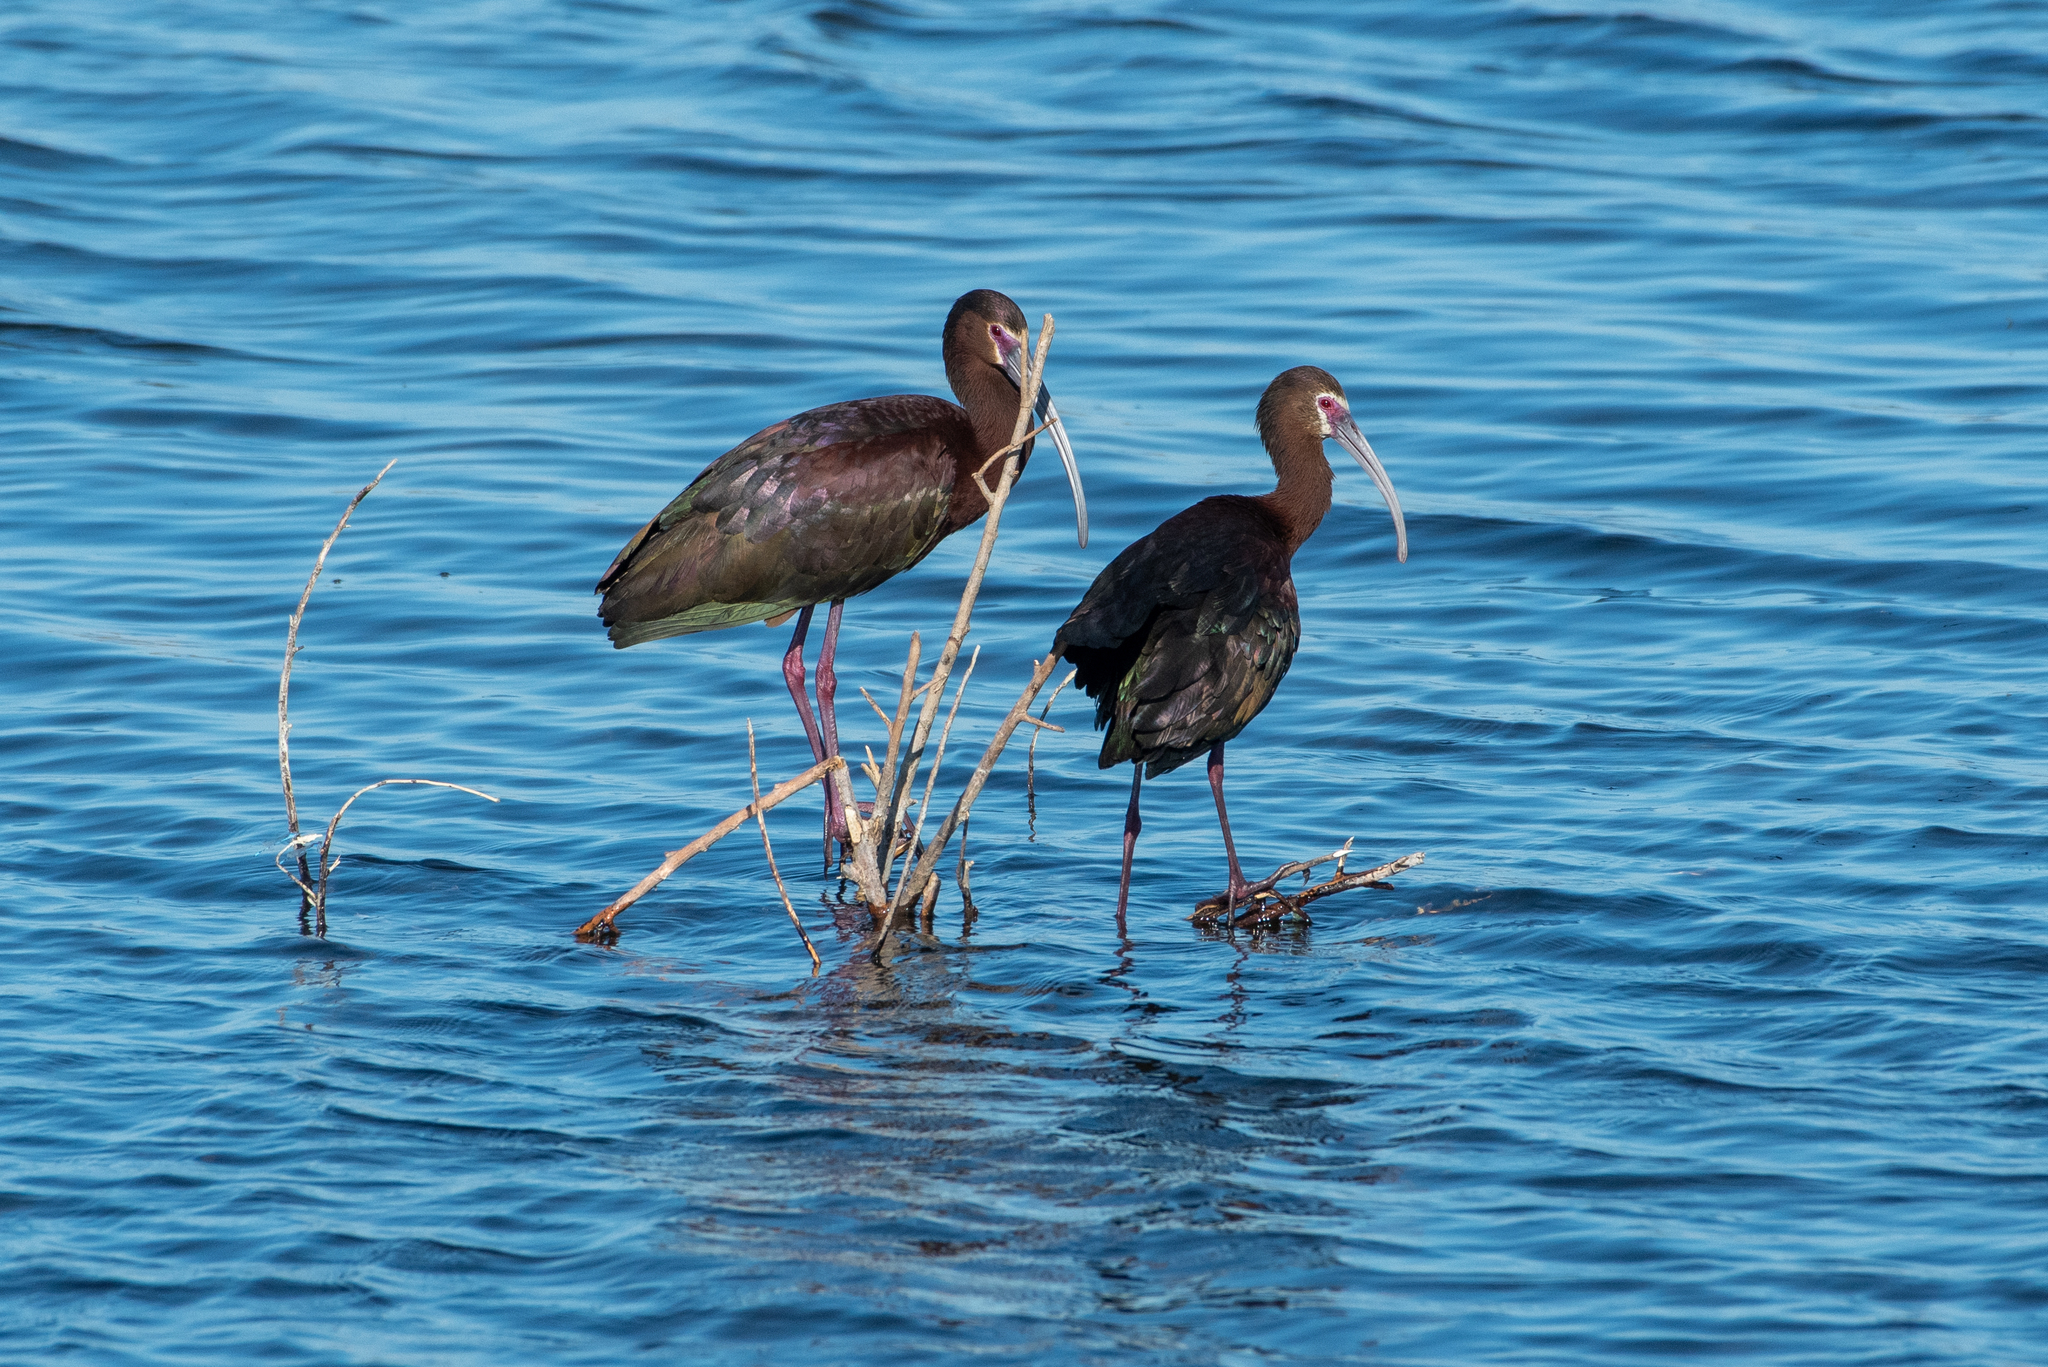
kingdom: Animalia
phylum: Chordata
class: Aves
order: Pelecaniformes
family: Threskiornithidae
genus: Plegadis
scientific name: Plegadis chihi
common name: White-faced ibis
